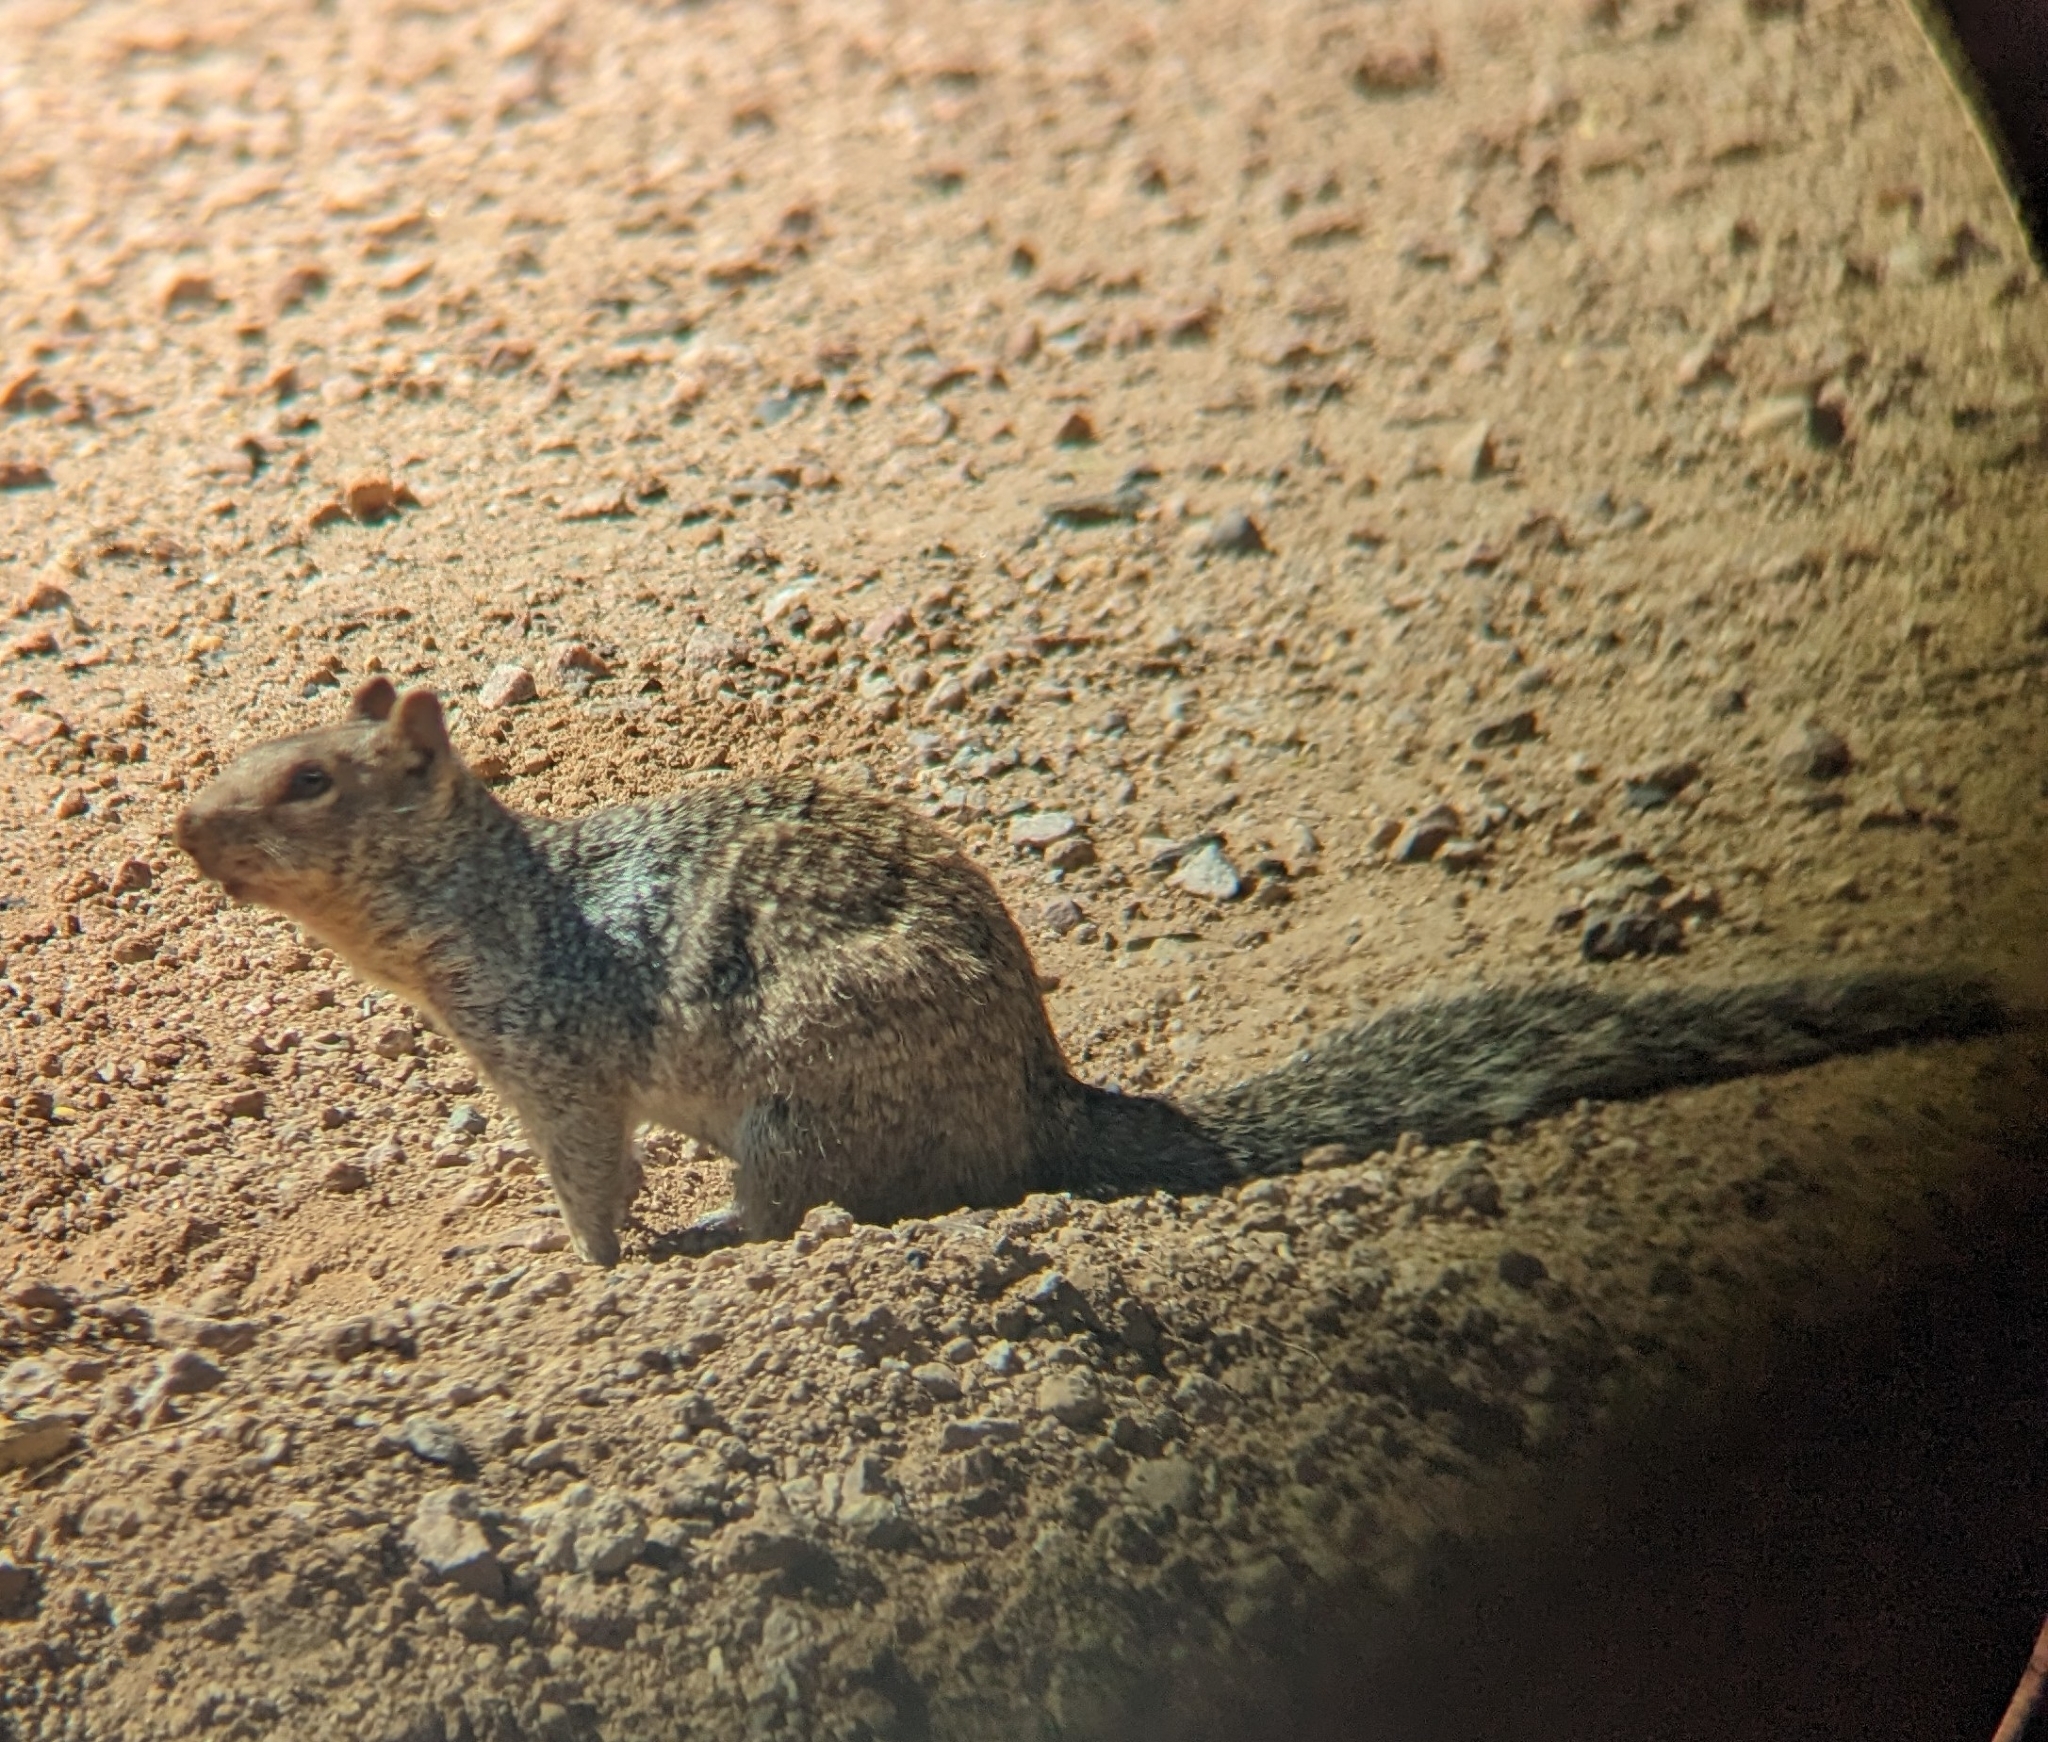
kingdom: Animalia
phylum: Chordata
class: Mammalia
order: Rodentia
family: Sciuridae
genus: Otospermophilus
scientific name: Otospermophilus variegatus
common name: Rock squirrel
